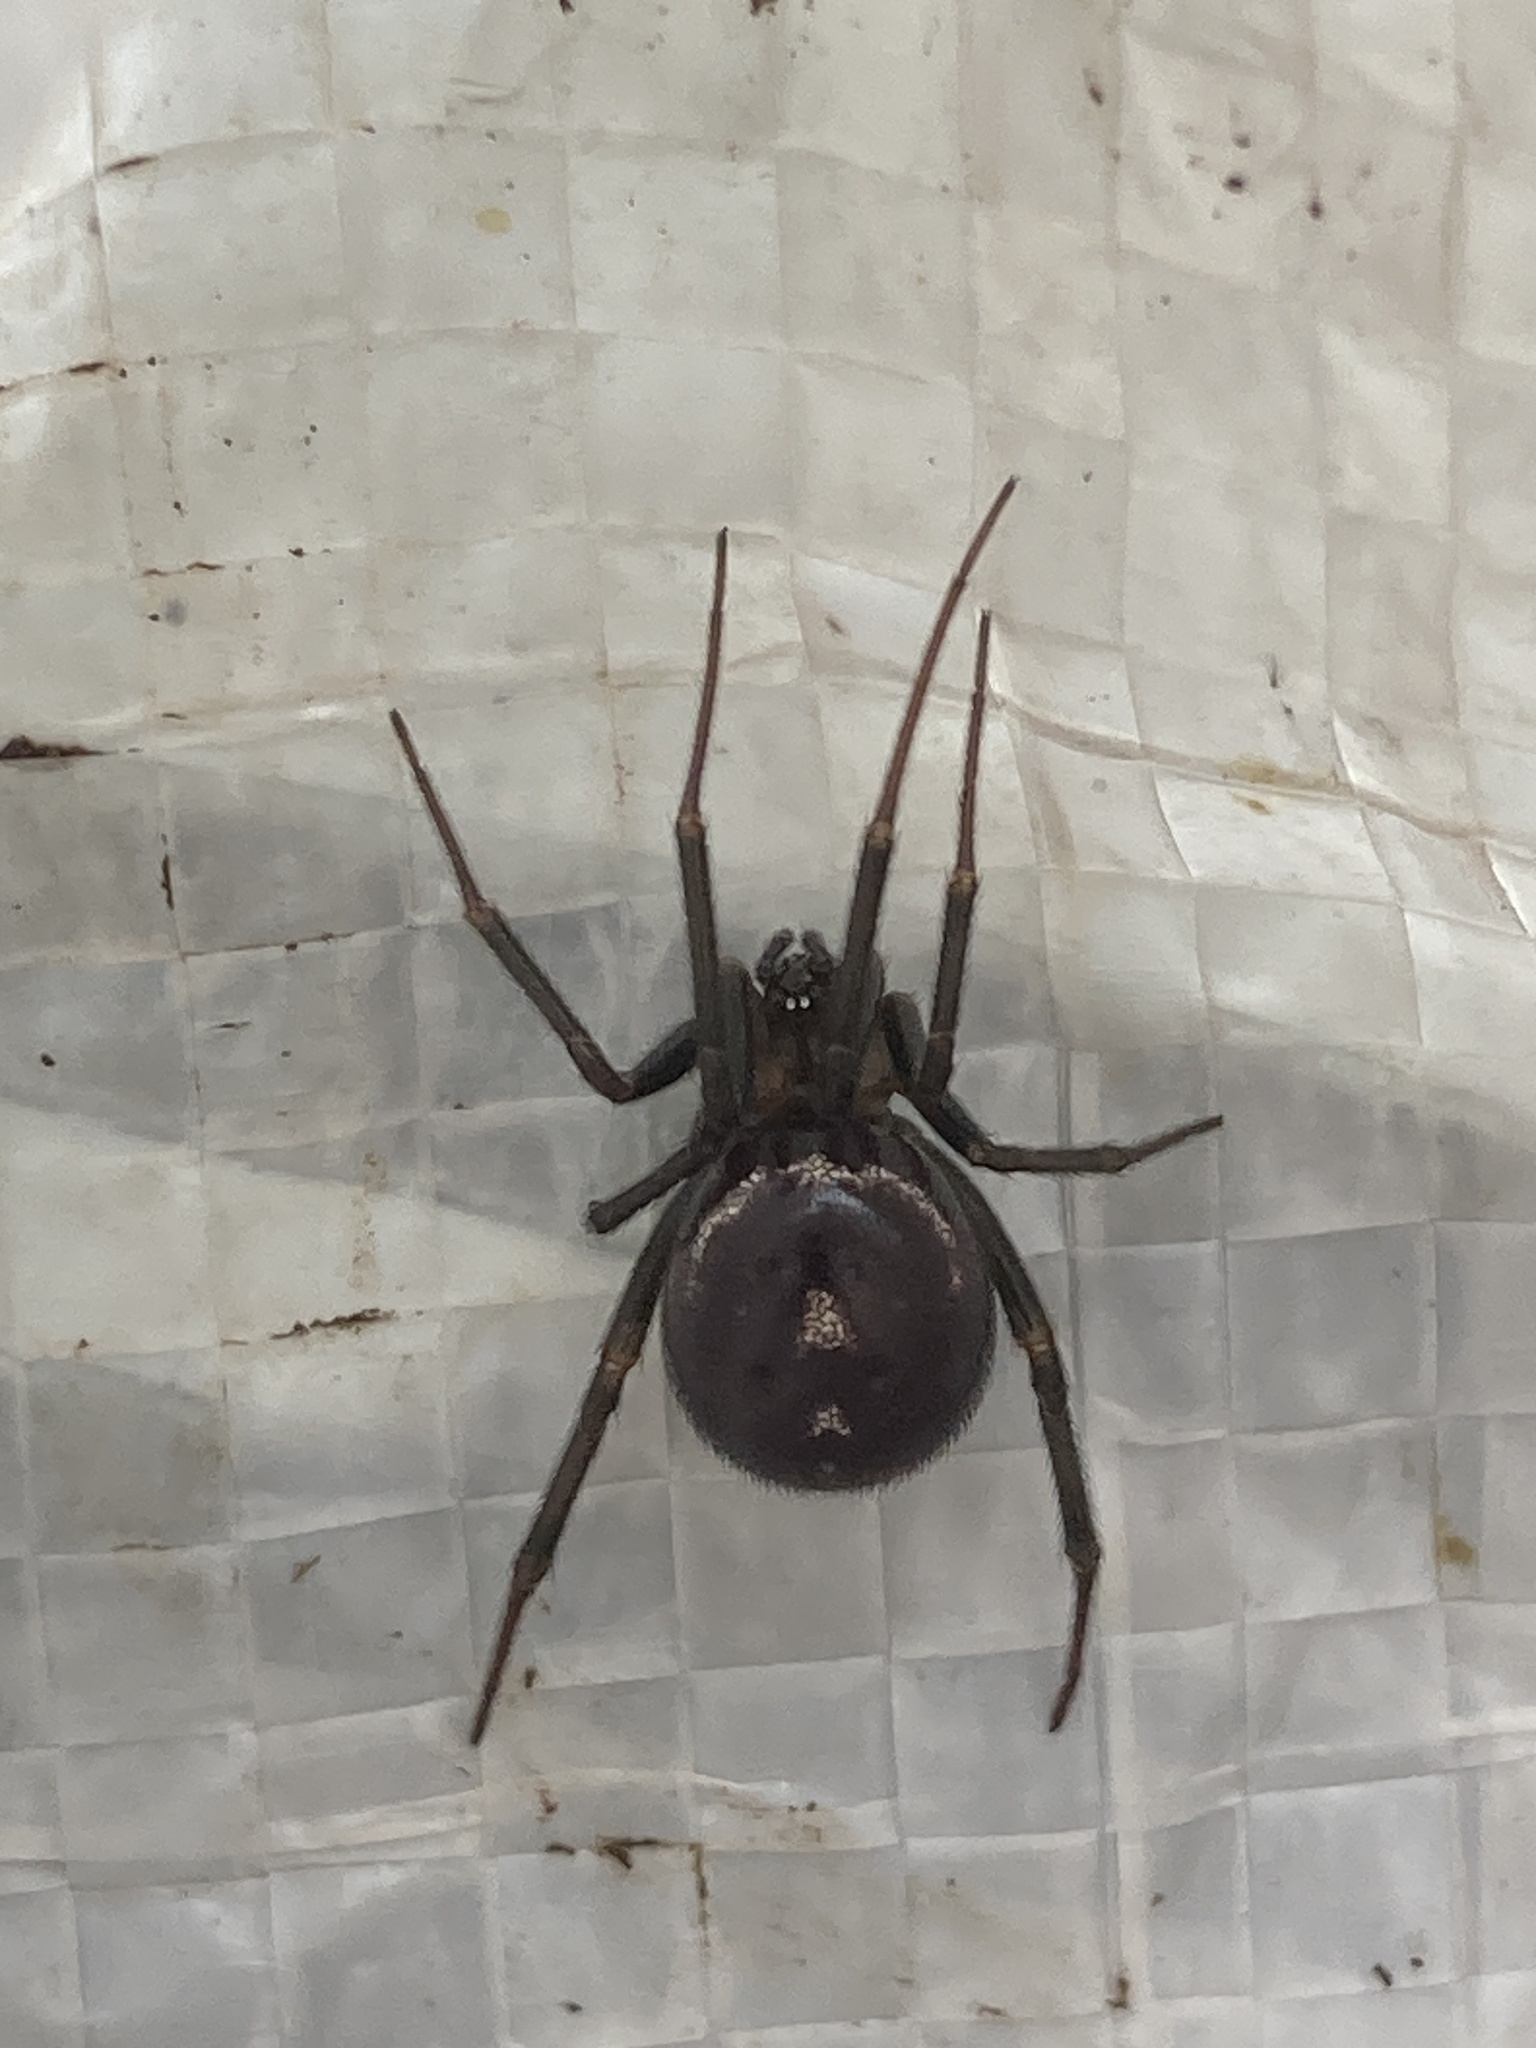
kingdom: Animalia
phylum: Arthropoda
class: Arachnida
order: Araneae
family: Theridiidae
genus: Steatoda
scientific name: Steatoda grossa
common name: False black widow
